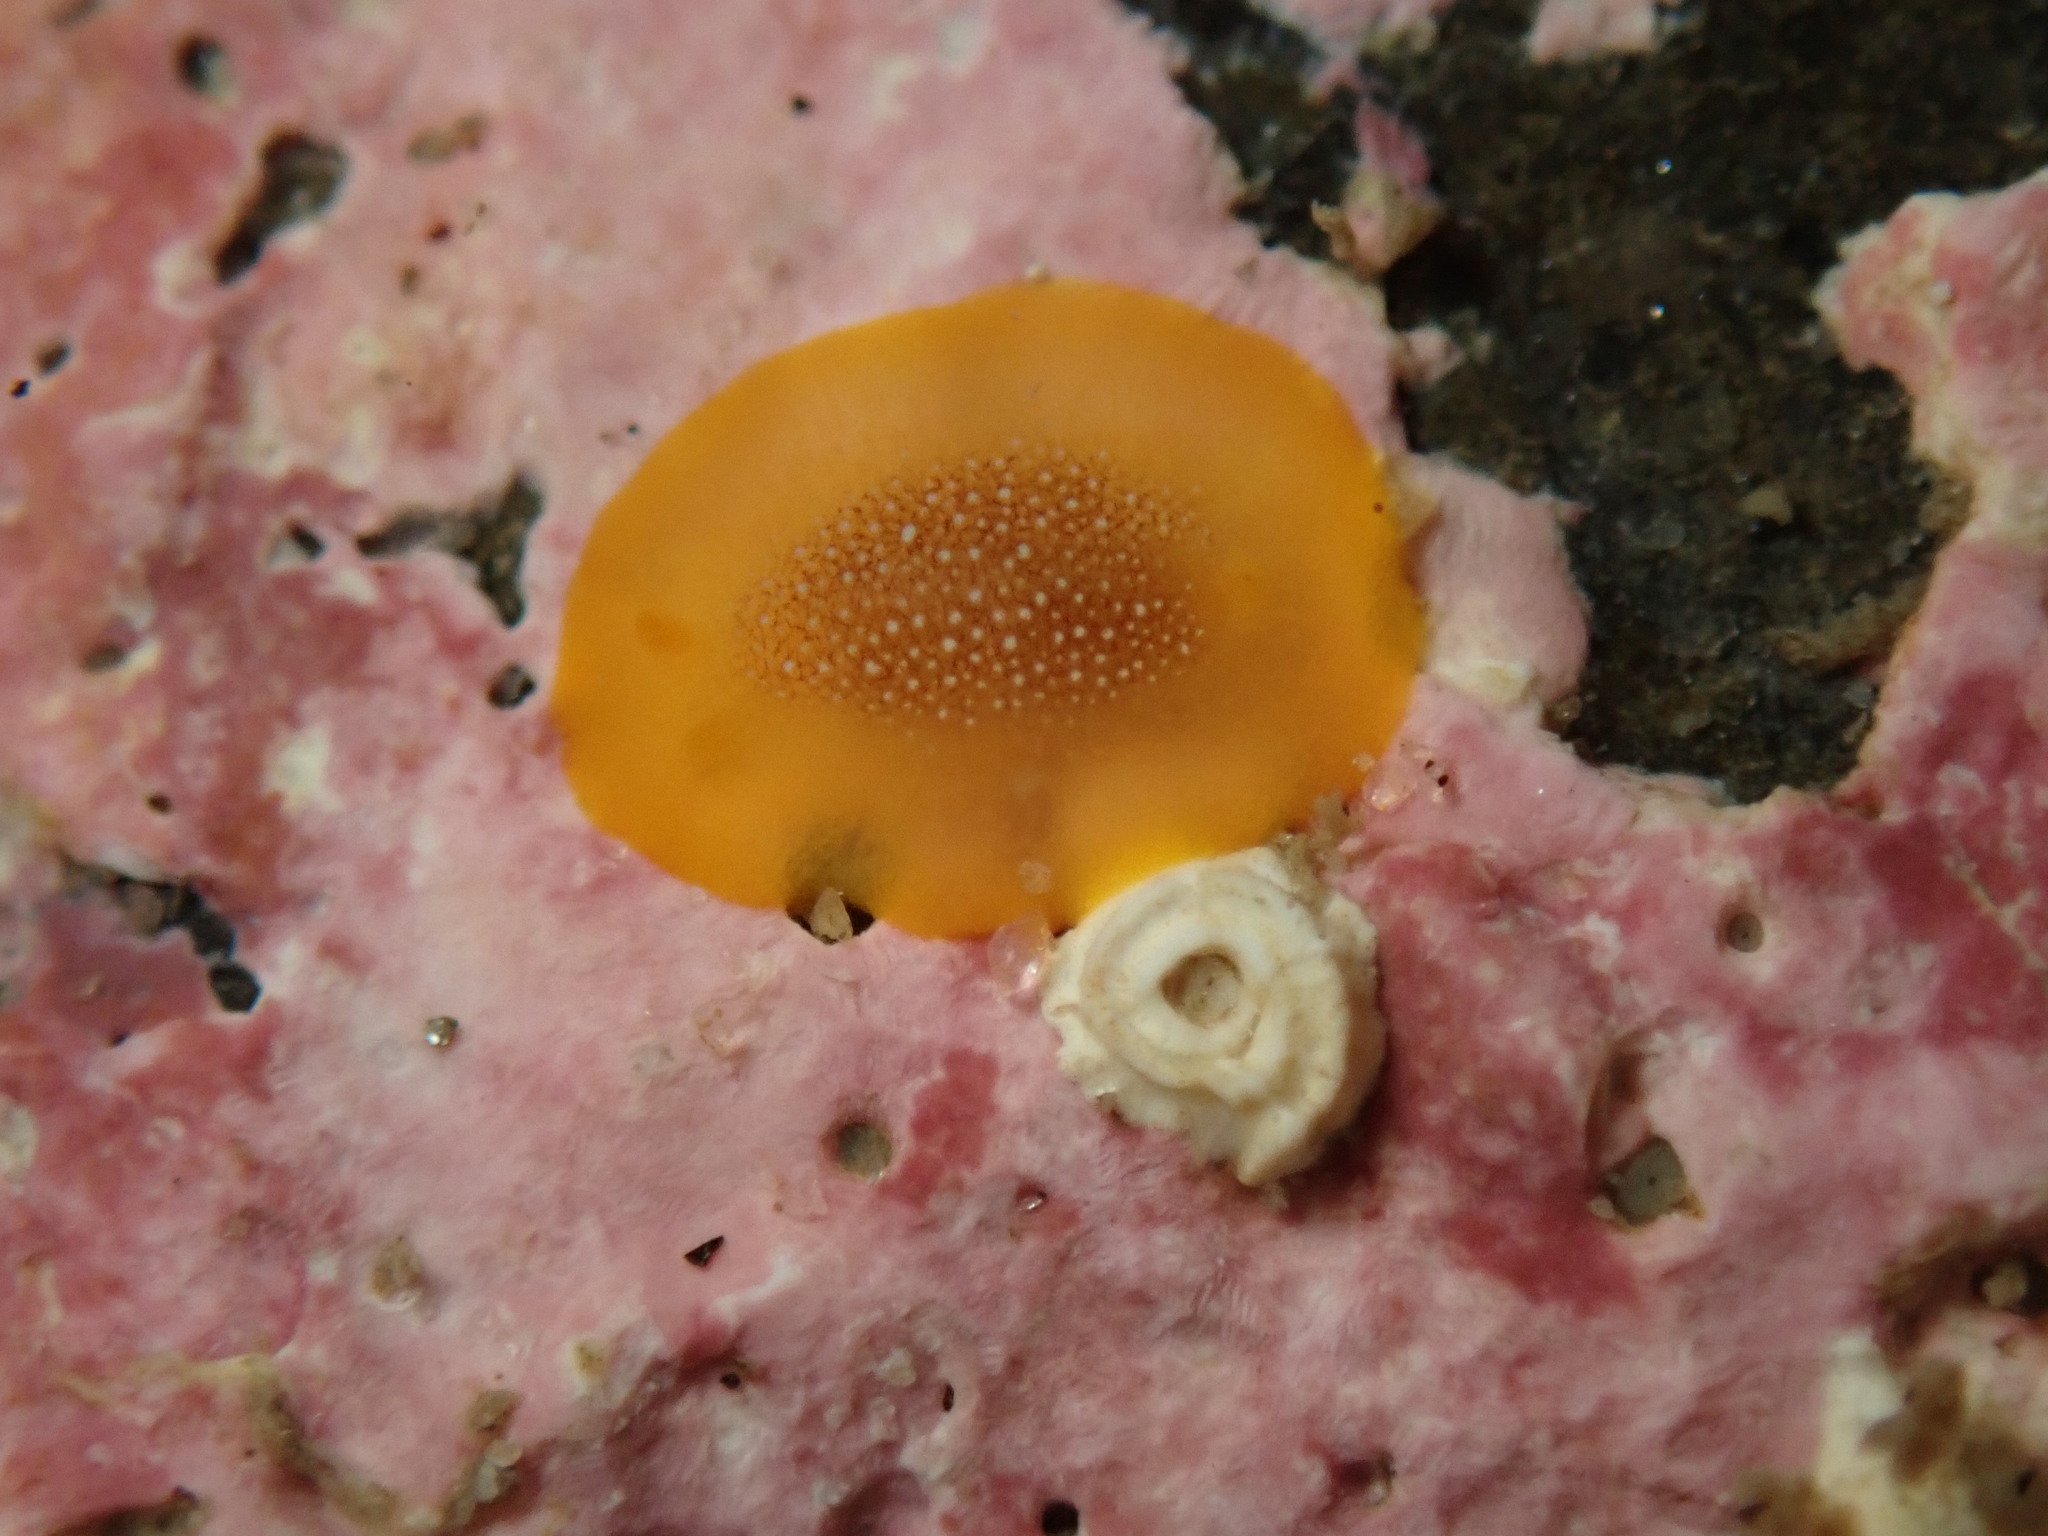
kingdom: Animalia
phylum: Mollusca
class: Gastropoda
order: Nudibranchia
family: Dendrodorididae
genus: Doriopsilla
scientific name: Doriopsilla gemela
